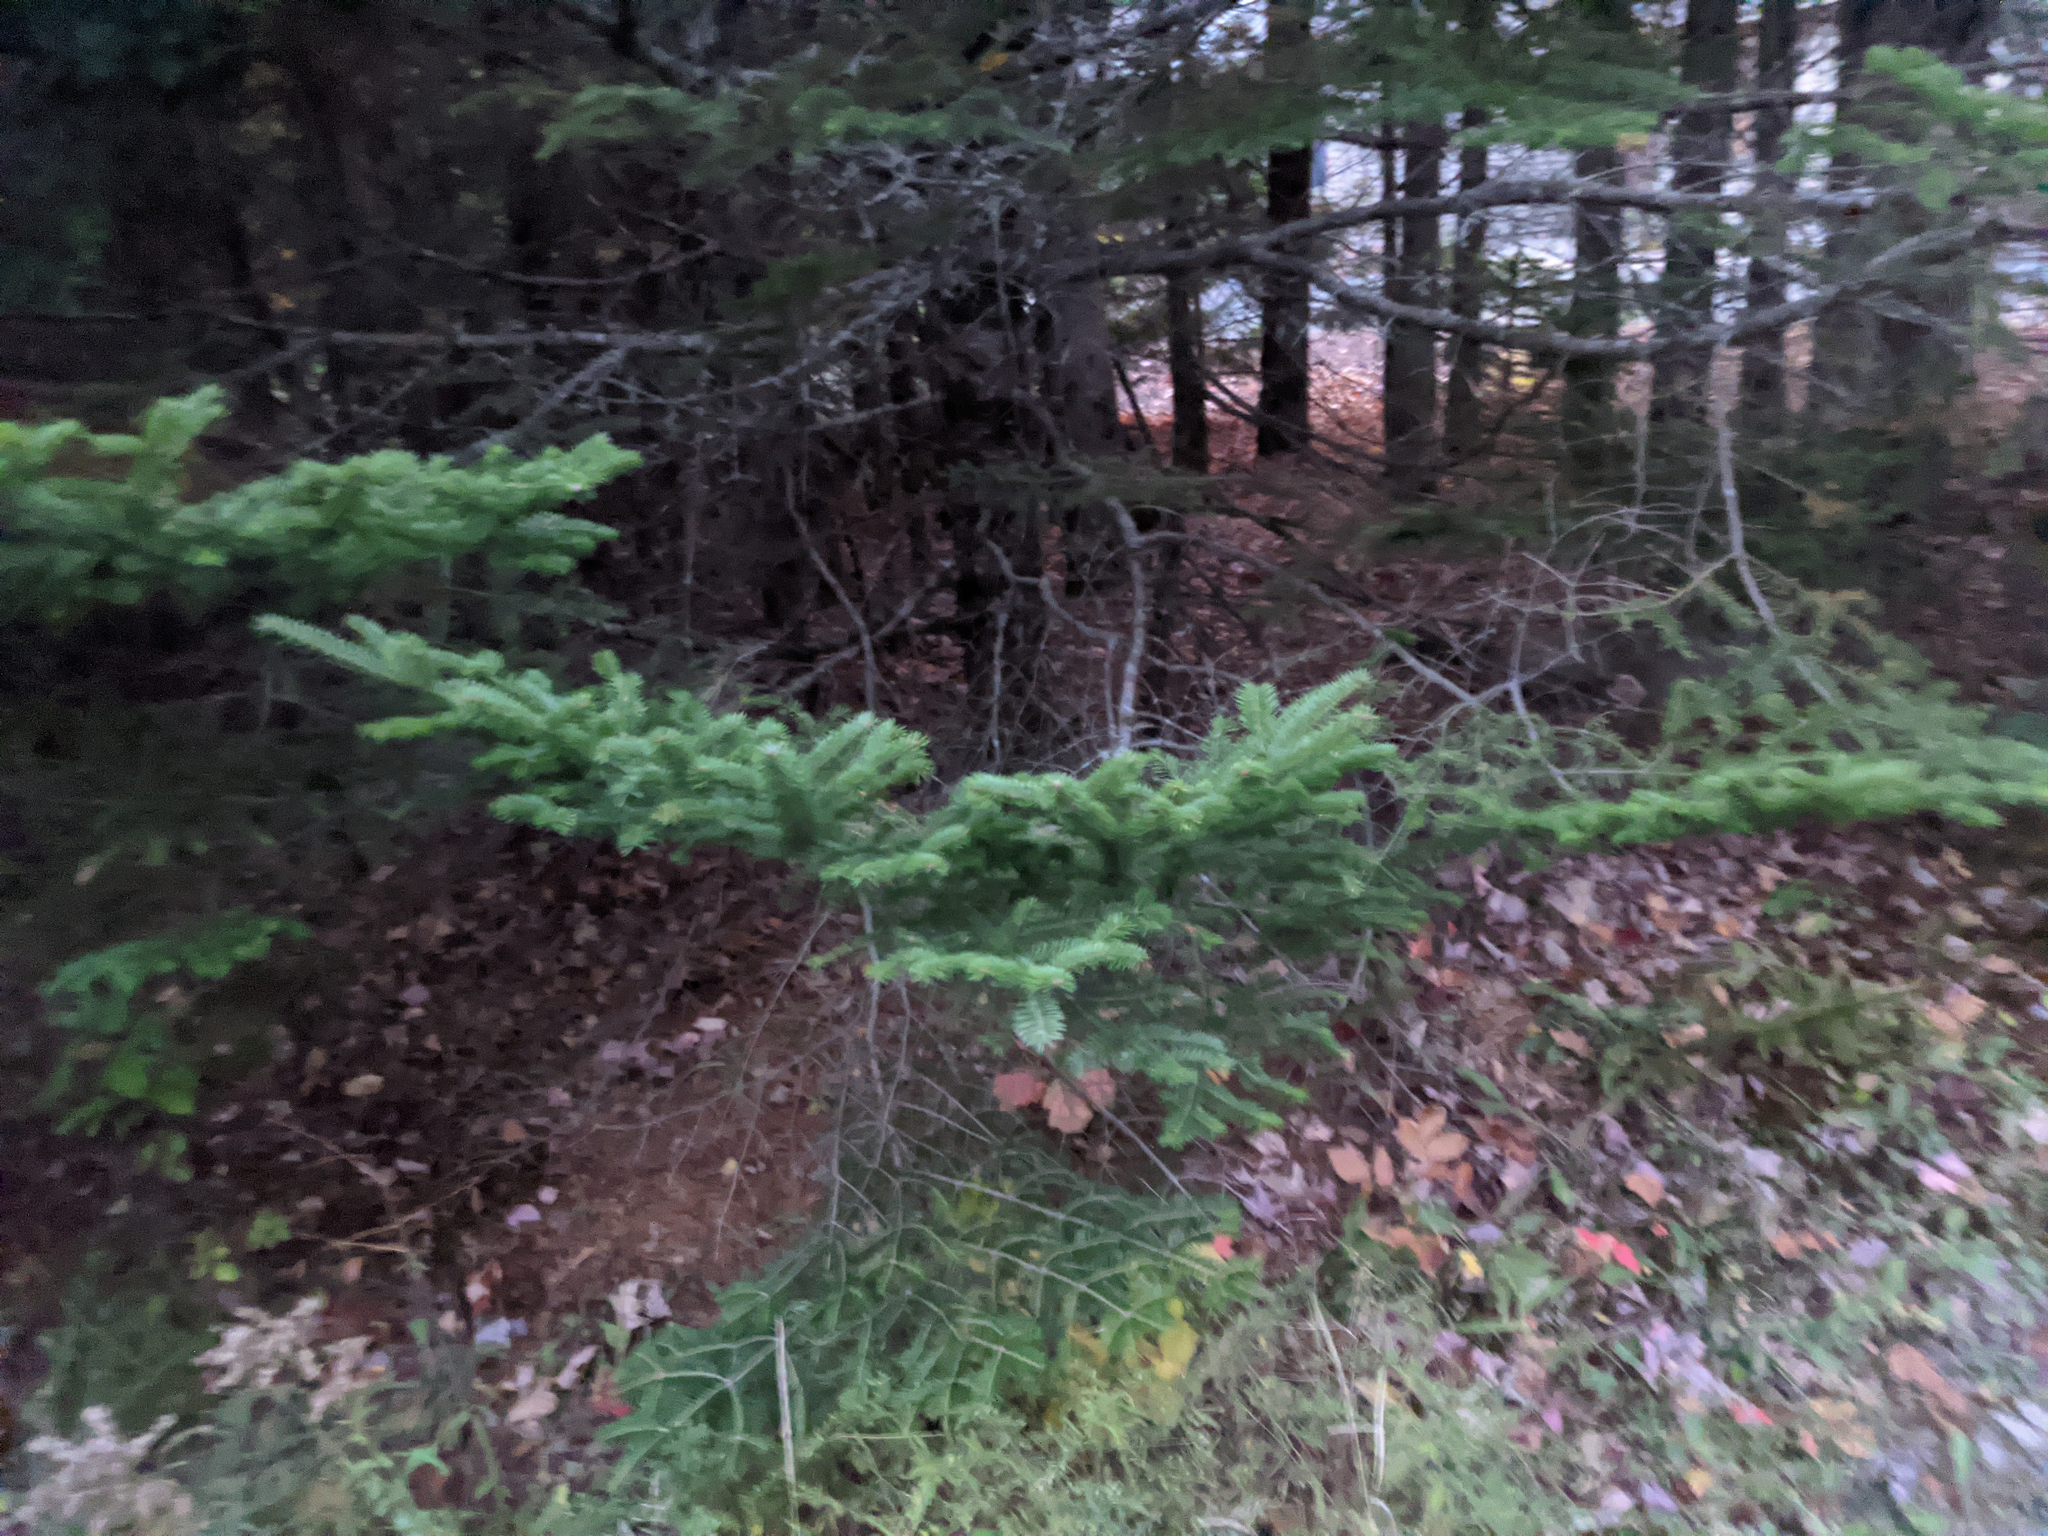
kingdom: Plantae
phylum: Tracheophyta
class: Pinopsida
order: Pinales
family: Pinaceae
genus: Abies
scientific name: Abies balsamea
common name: Balsam fir
